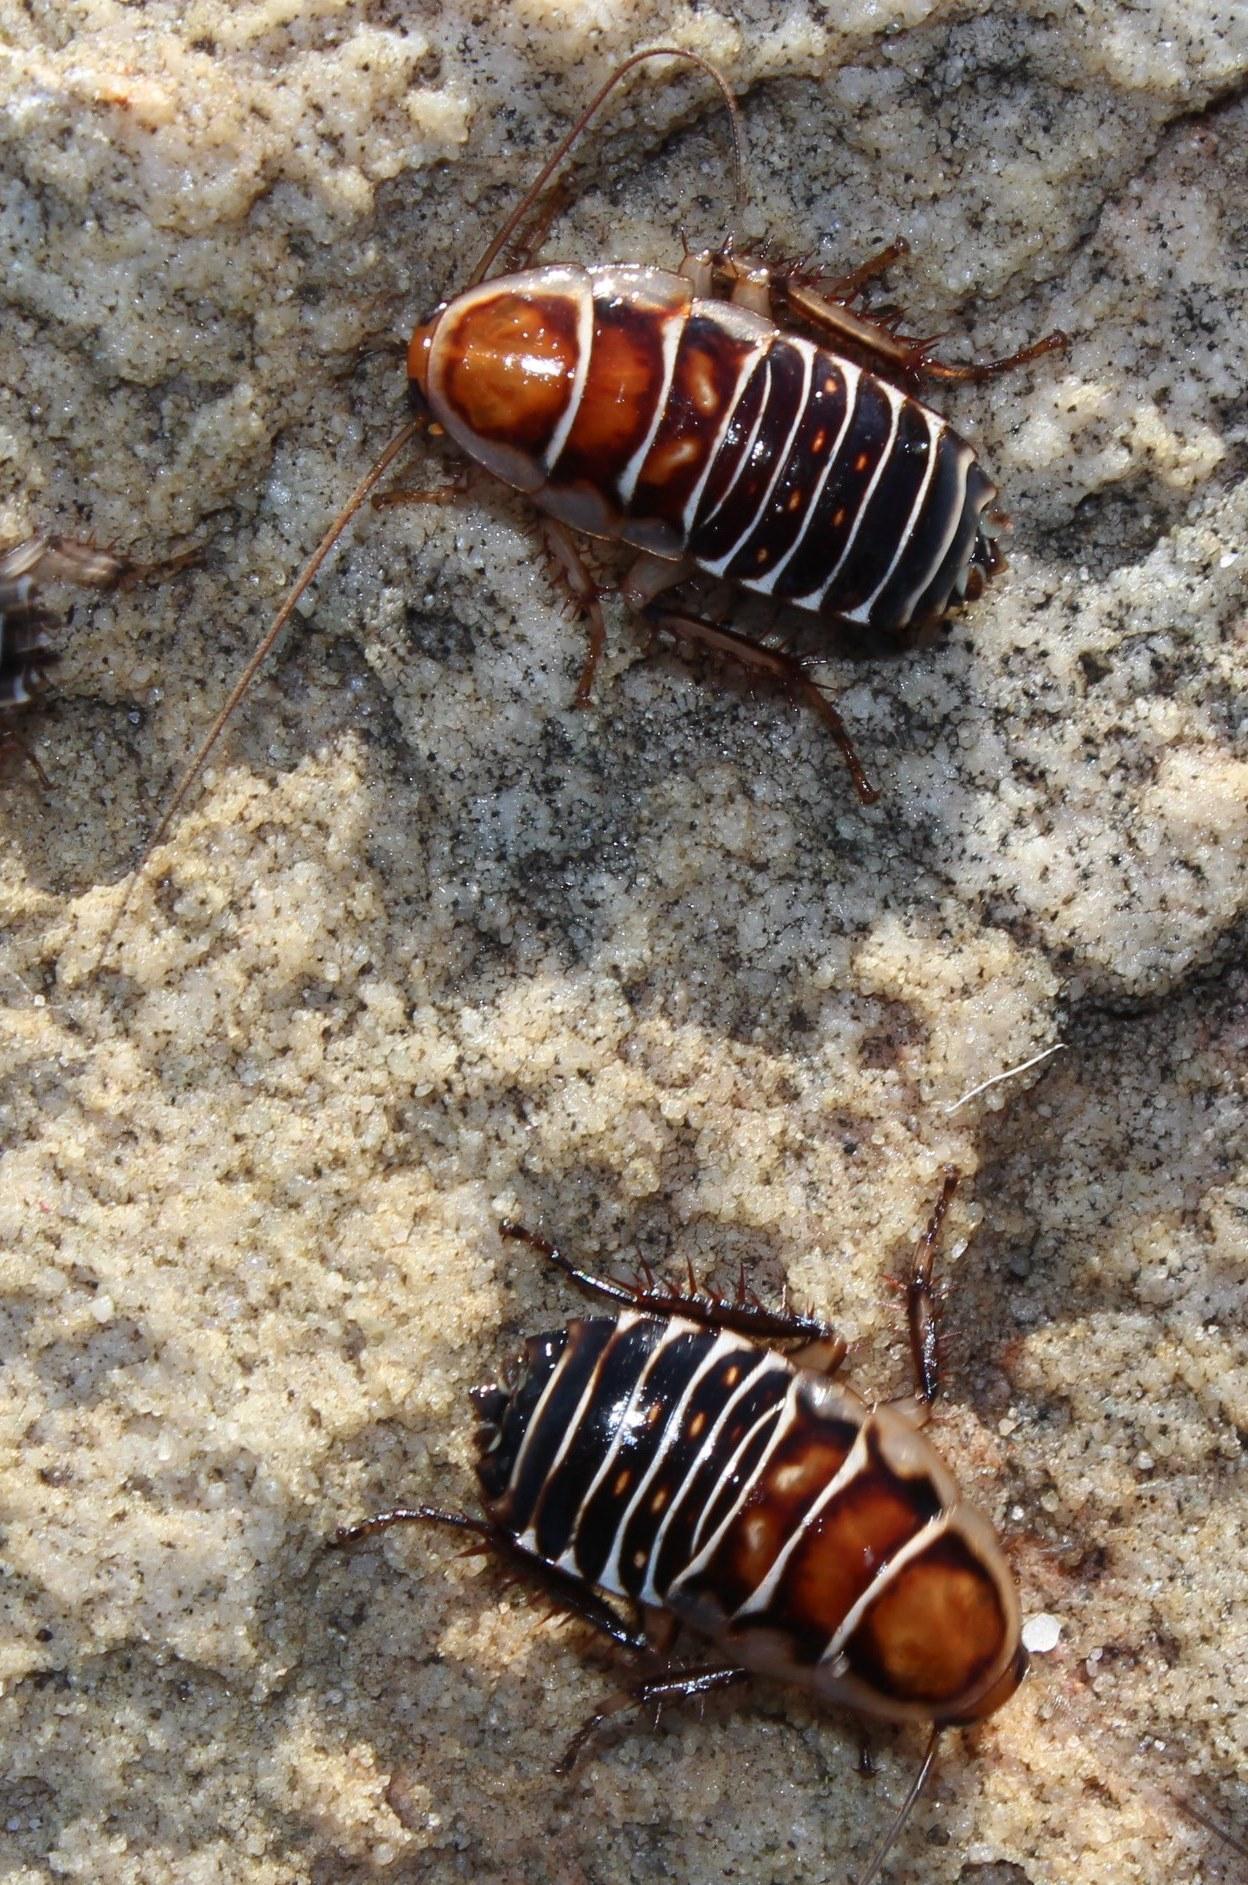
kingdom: Animalia
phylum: Arthropoda
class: Insecta
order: Blattodea
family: Ectobiidae
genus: Temnopteryx
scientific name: Temnopteryx phalerata
